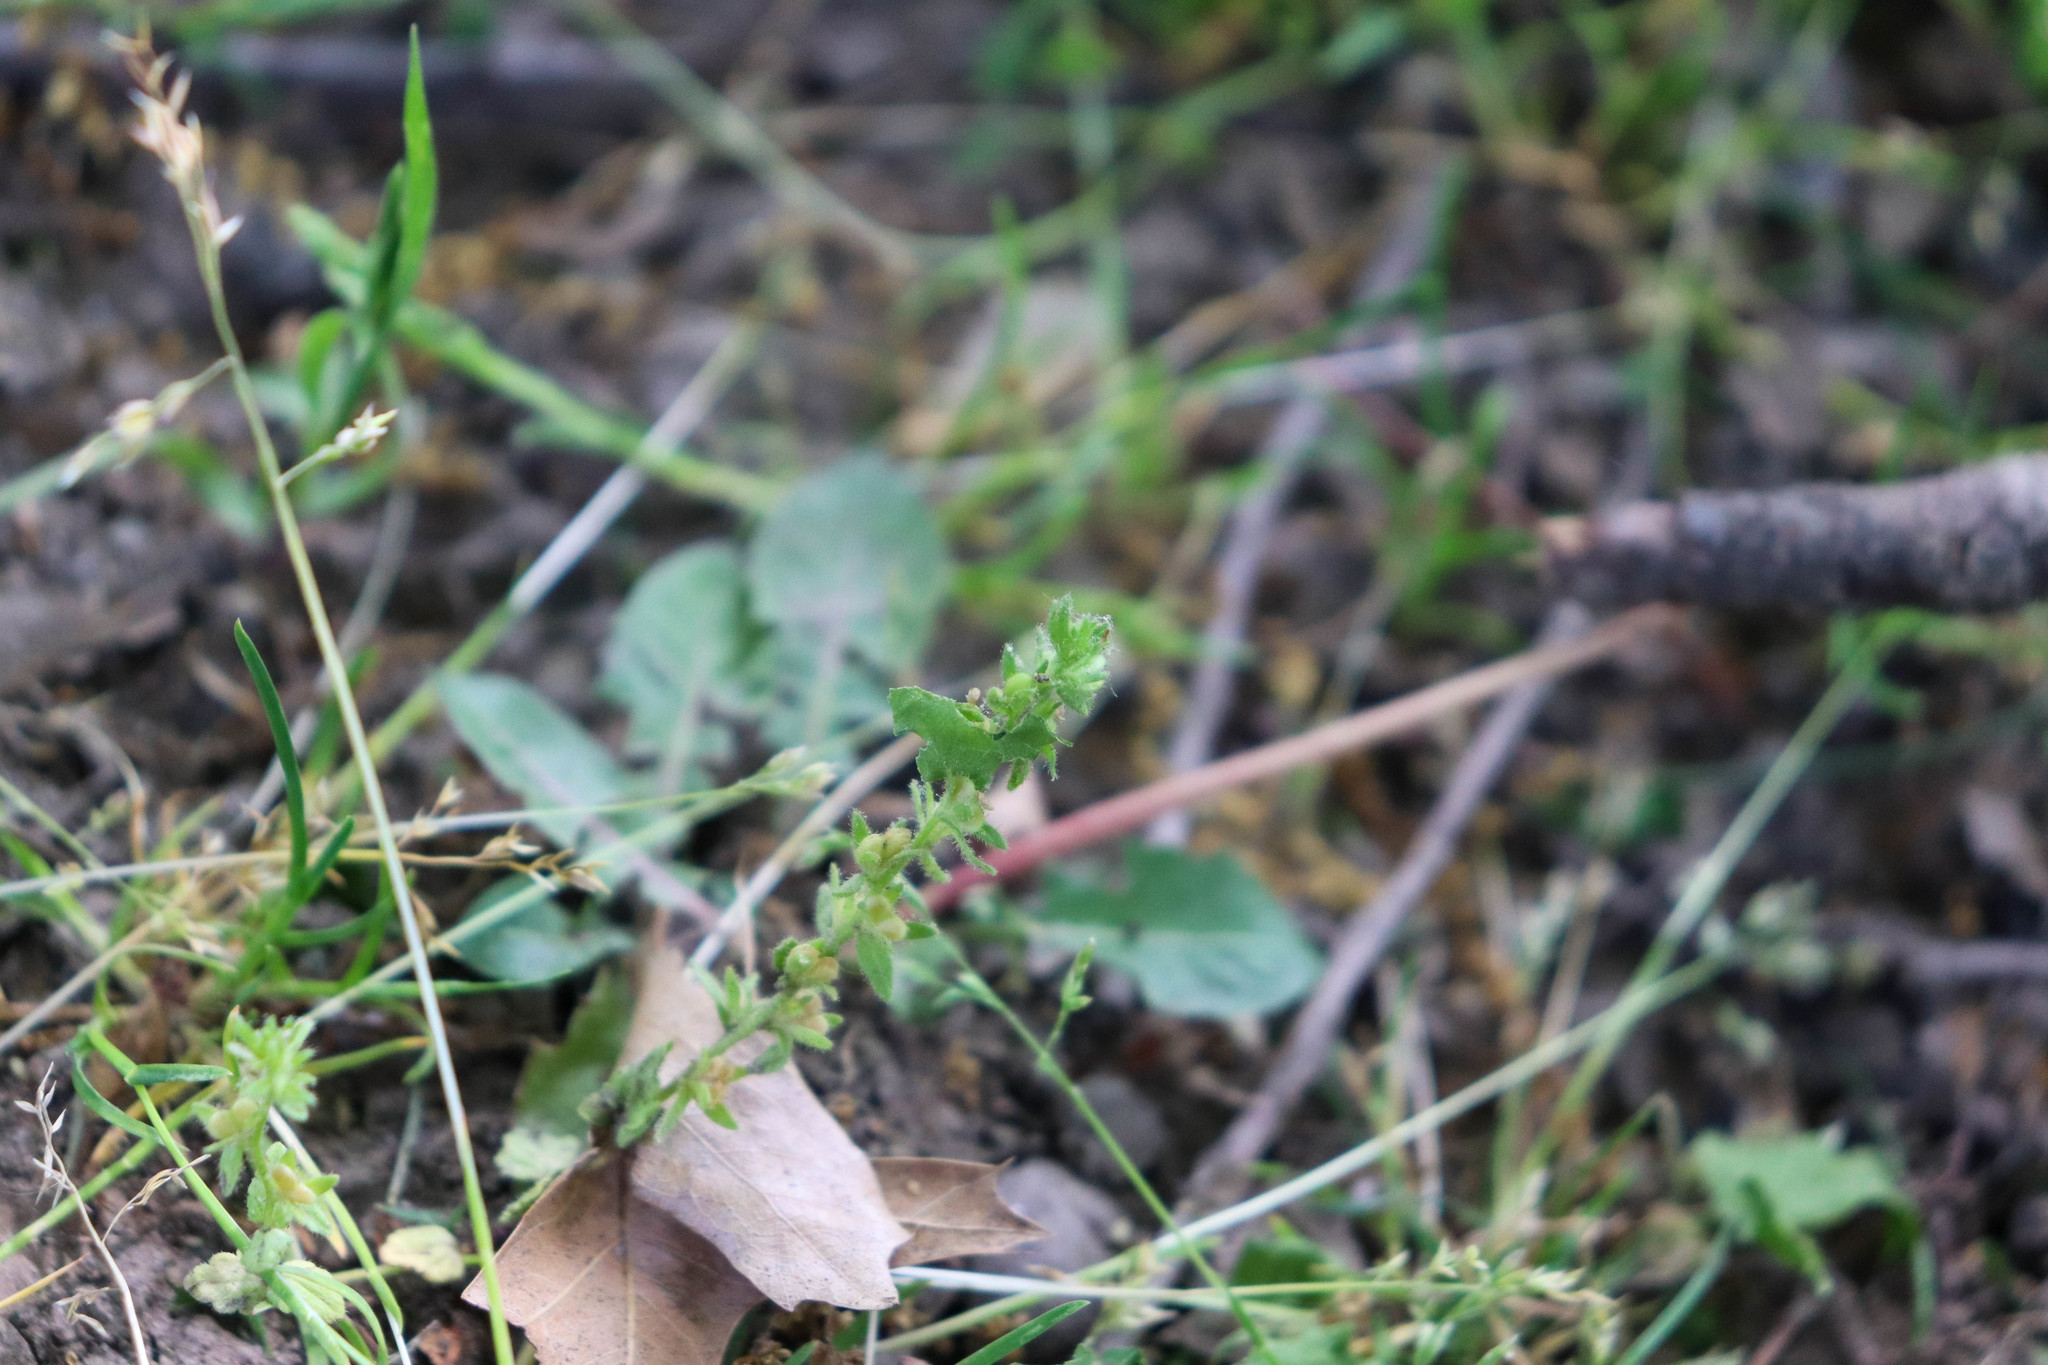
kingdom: Plantae
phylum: Tracheophyta
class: Magnoliopsida
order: Lamiales
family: Plantaginaceae
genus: Veronica
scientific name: Veronica arvensis
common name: Corn speedwell
